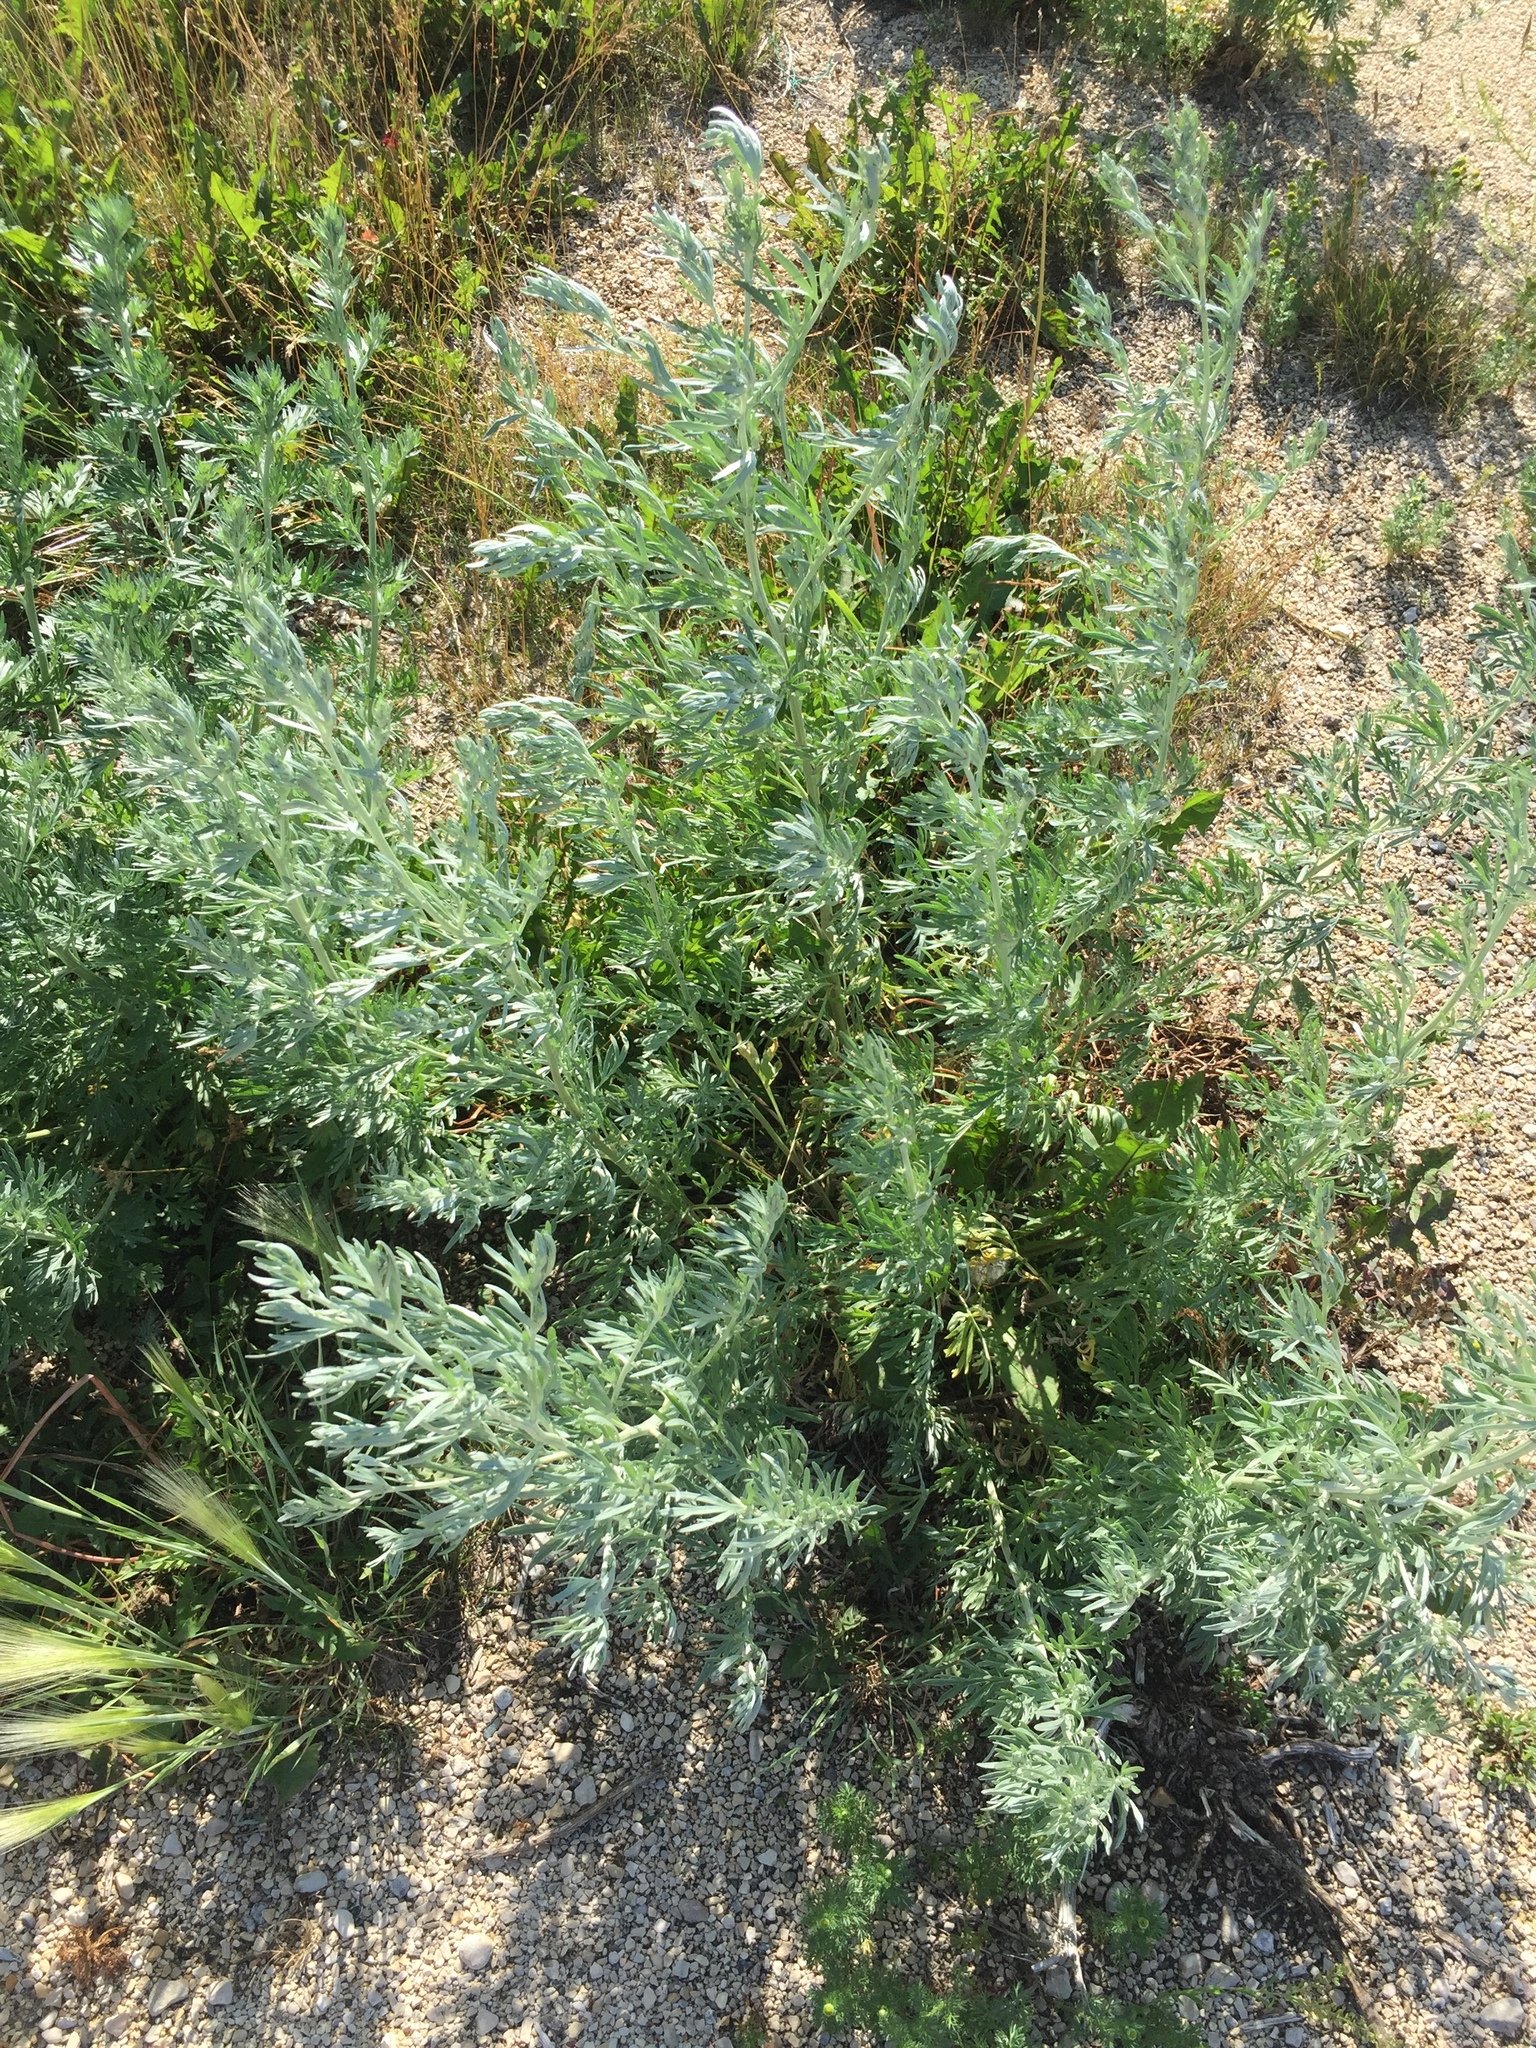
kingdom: Plantae
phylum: Tracheophyta
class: Magnoliopsida
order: Asterales
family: Asteraceae
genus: Artemisia
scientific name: Artemisia absinthium
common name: Wormwood
